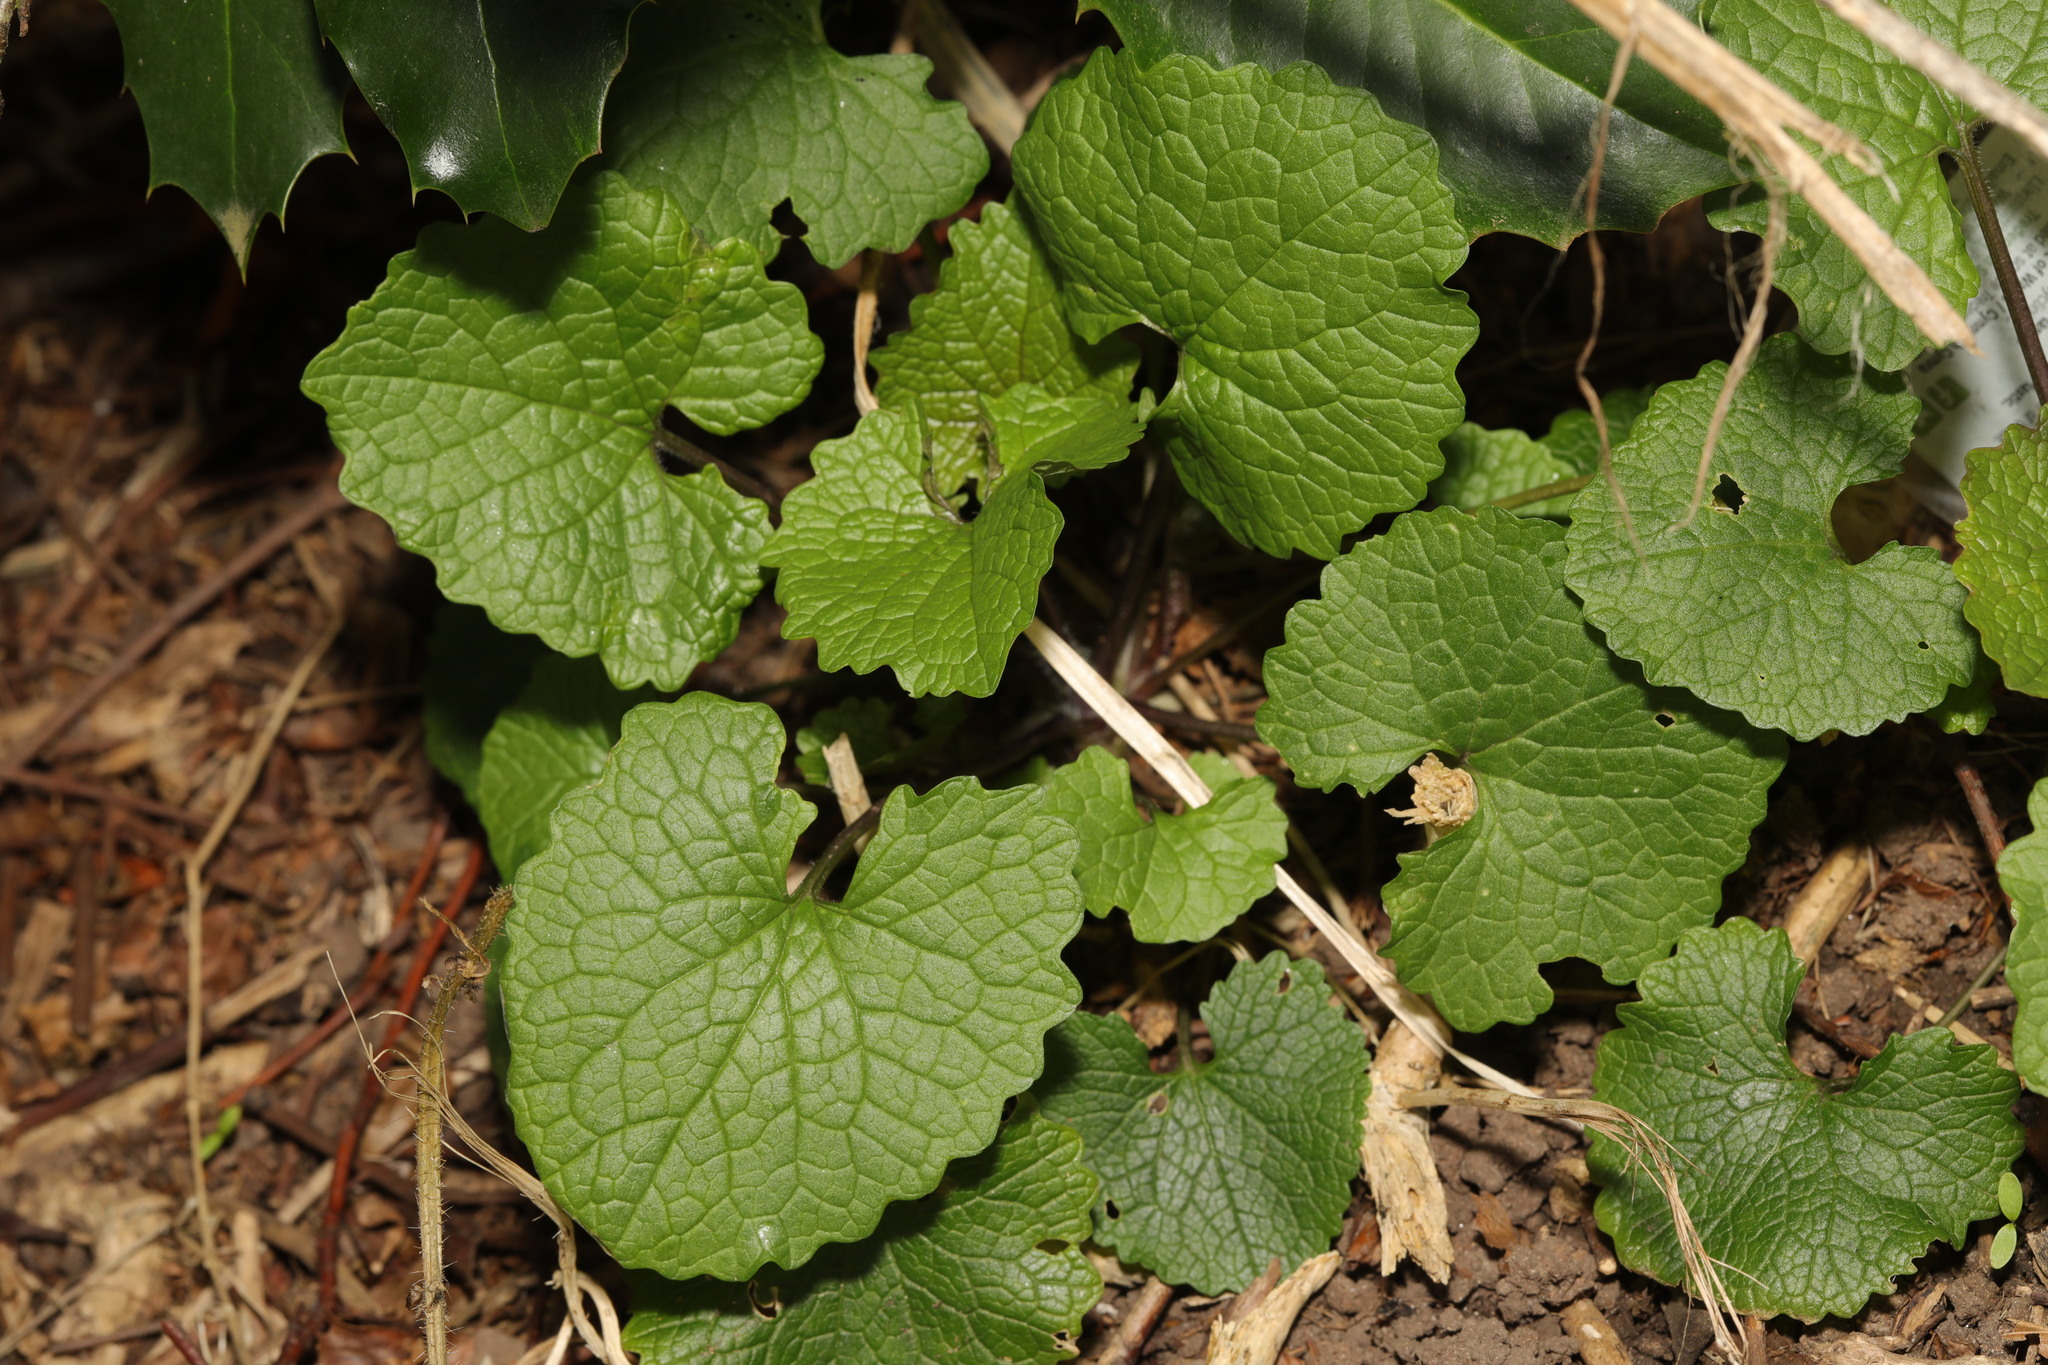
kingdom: Plantae
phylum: Tracheophyta
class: Magnoliopsida
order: Brassicales
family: Brassicaceae
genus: Alliaria
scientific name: Alliaria petiolata
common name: Garlic mustard
